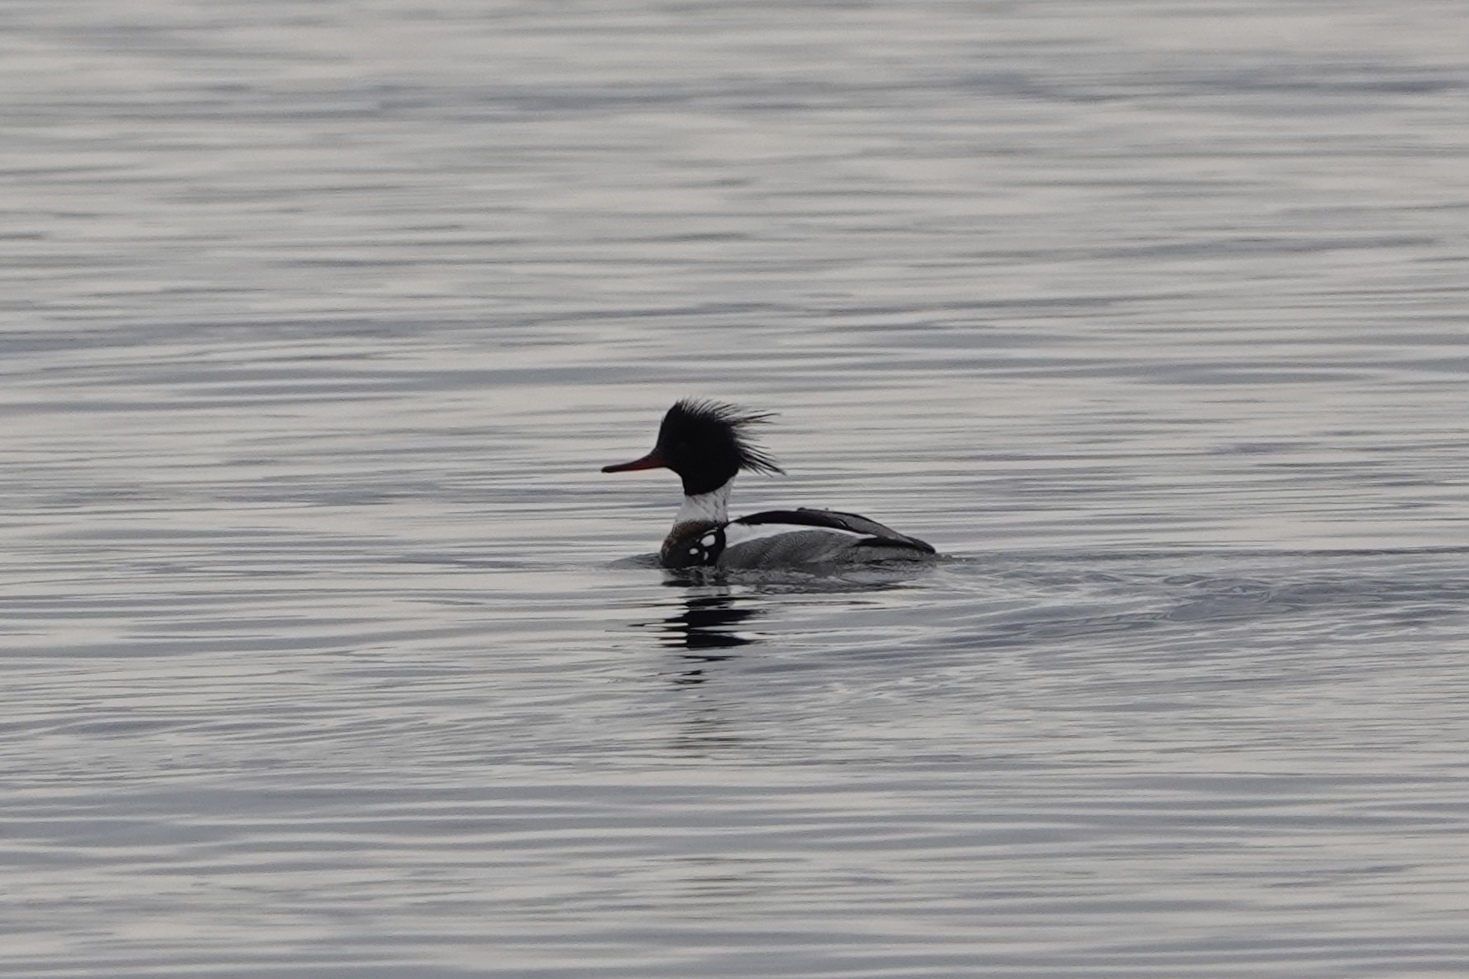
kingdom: Animalia
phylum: Chordata
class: Aves
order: Anseriformes
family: Anatidae
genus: Mergus
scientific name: Mergus serrator
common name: Red-breasted merganser
